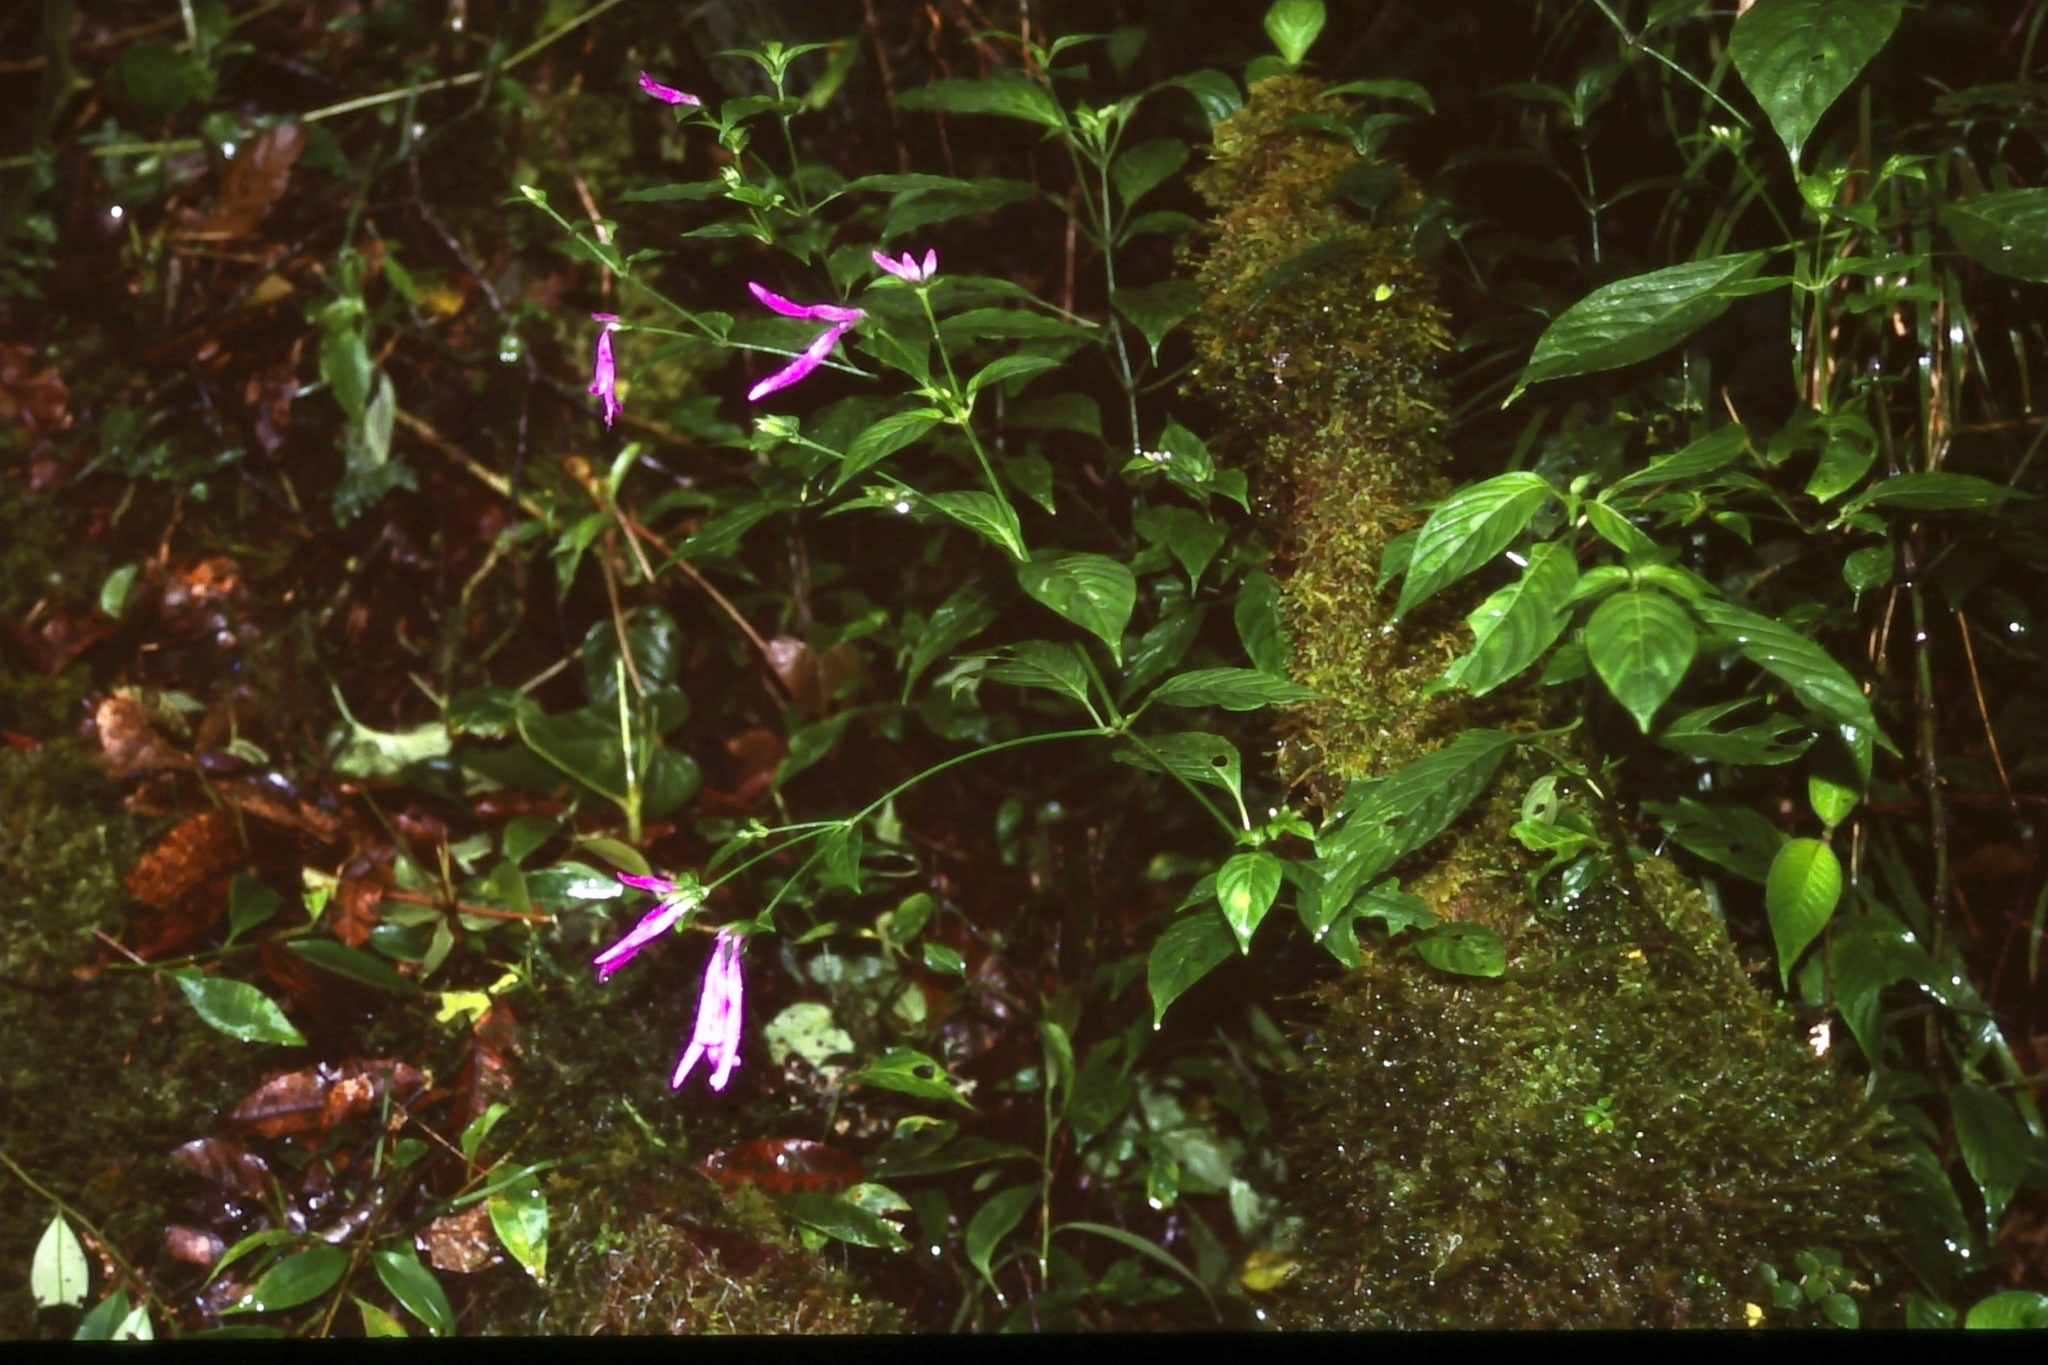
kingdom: Plantae
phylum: Tracheophyta
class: Magnoliopsida
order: Lamiales
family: Acanthaceae
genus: Dicliptera
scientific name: Dicliptera iopus
